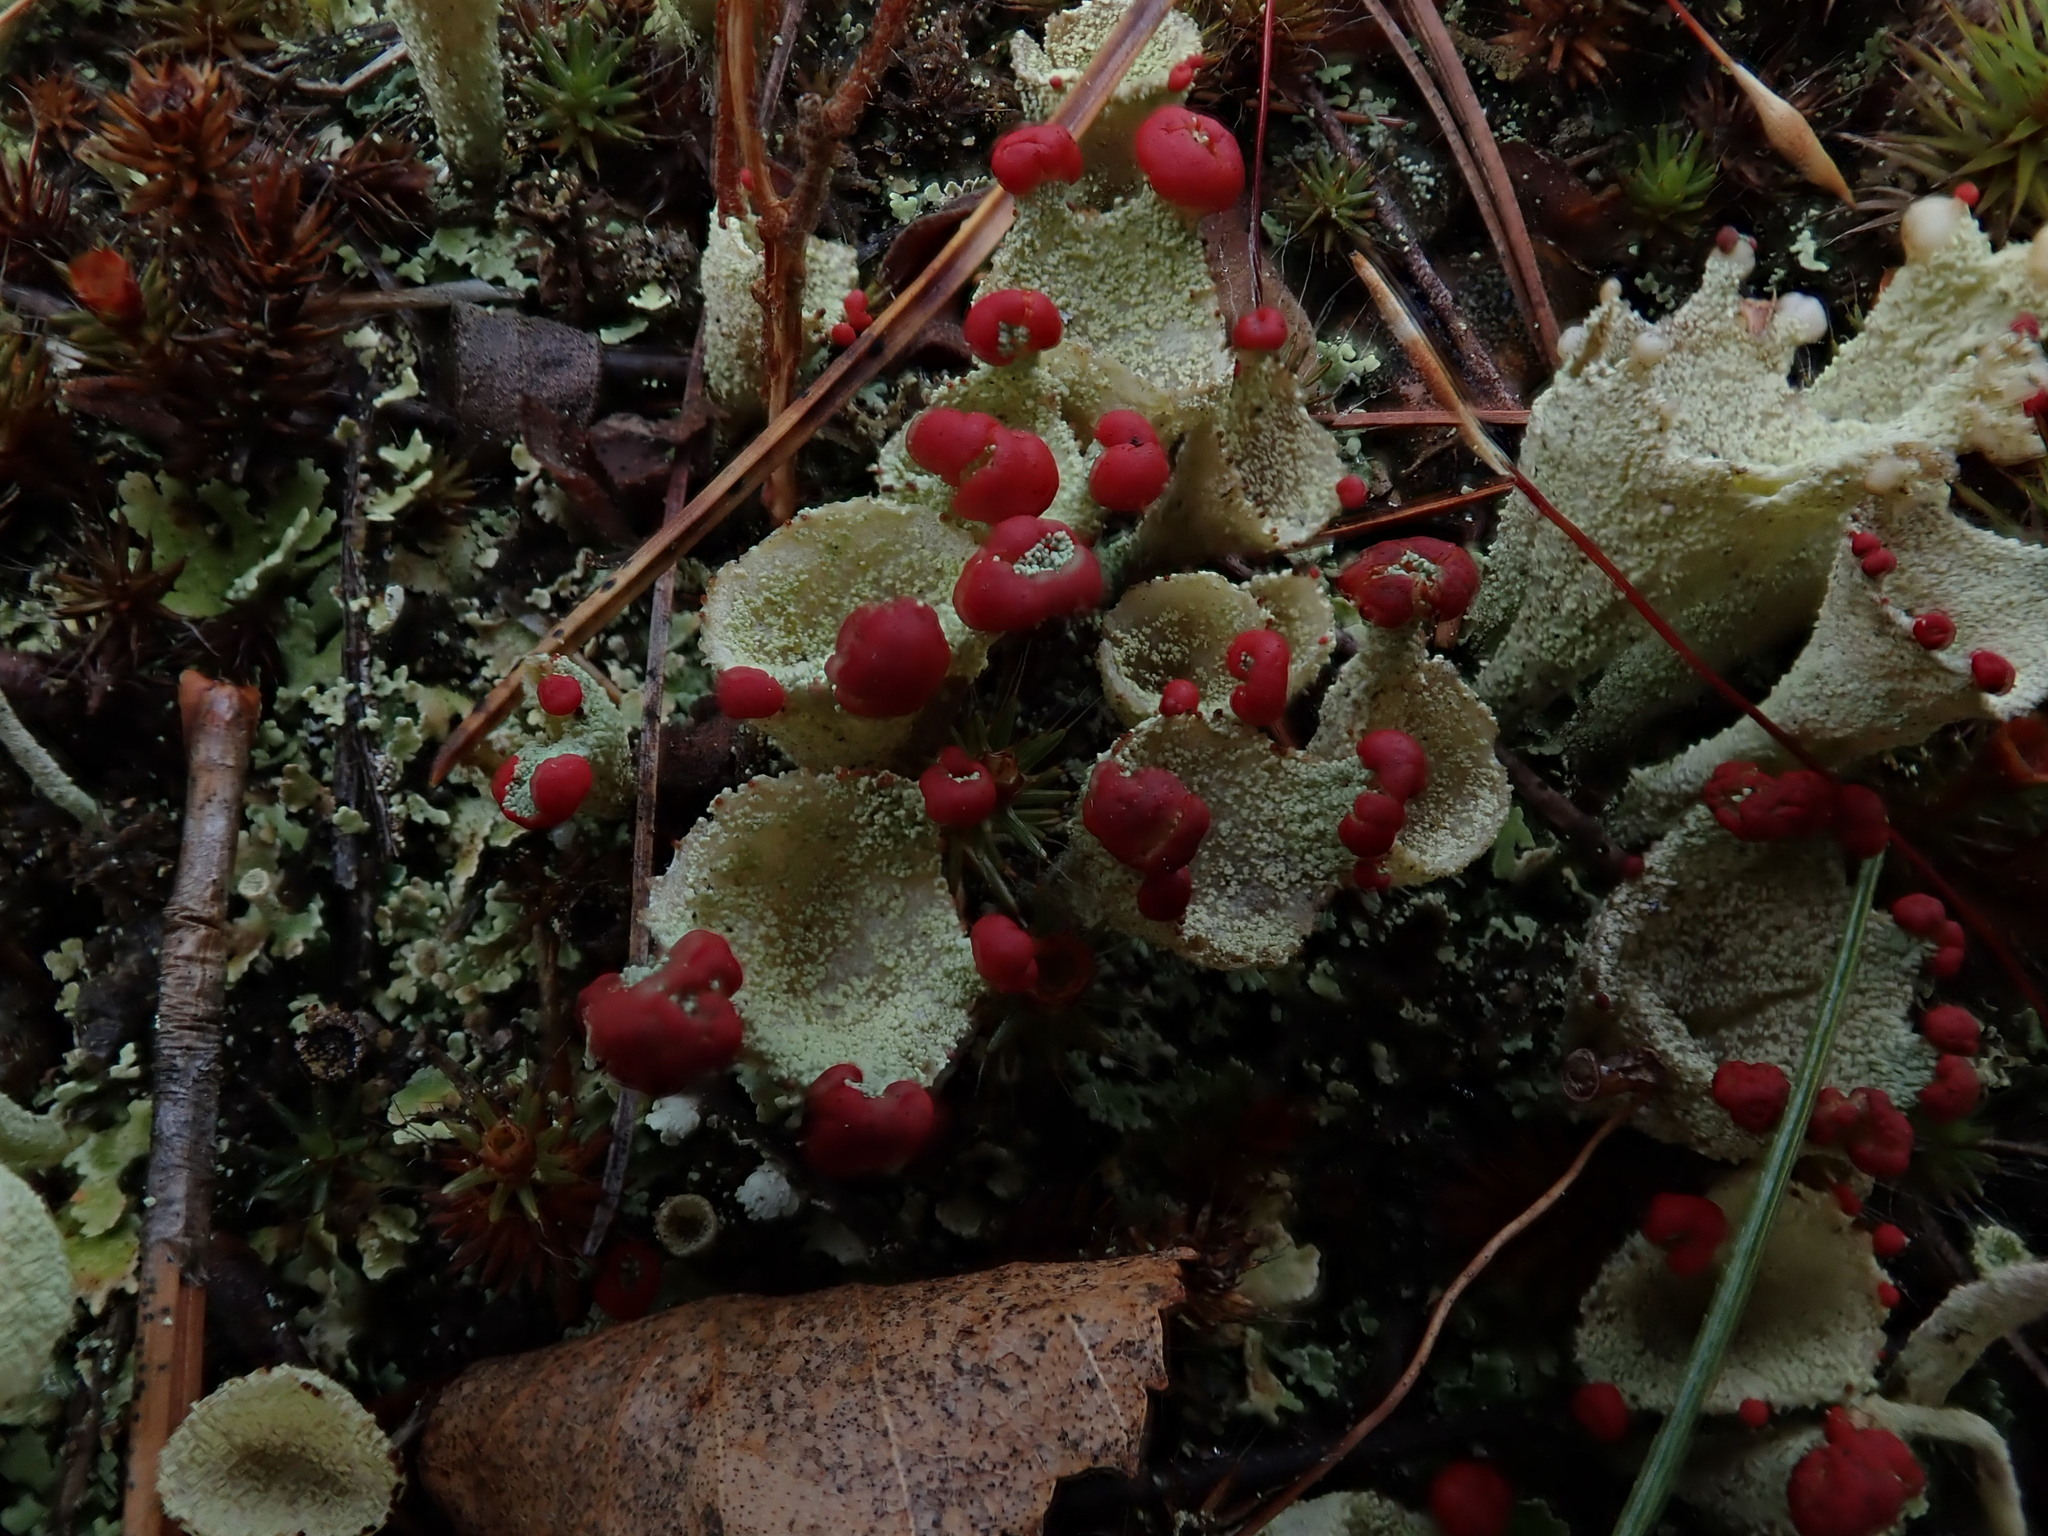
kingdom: Fungi
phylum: Ascomycota
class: Lecanoromycetes
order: Lecanorales
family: Cladoniaceae
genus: Cladonia
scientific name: Cladonia pleurota
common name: Red-fruited pixie cup
